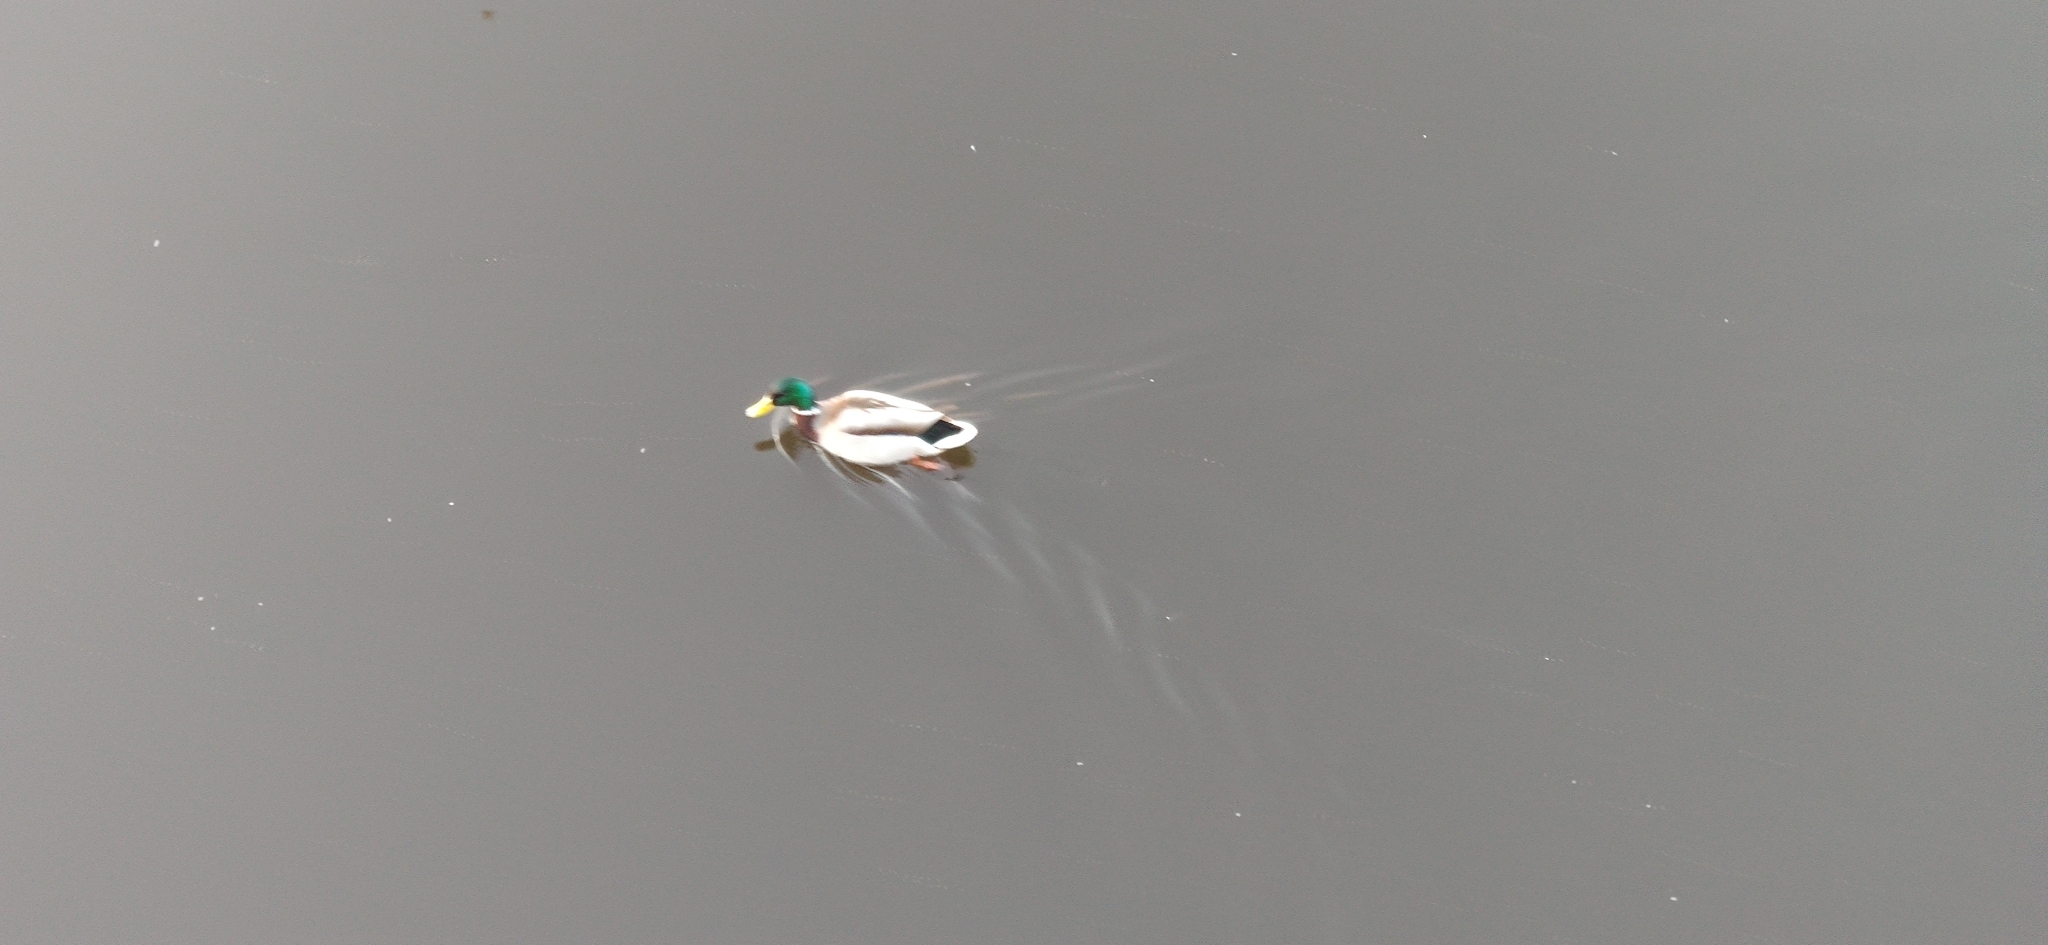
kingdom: Animalia
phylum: Chordata
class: Aves
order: Anseriformes
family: Anatidae
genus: Anas
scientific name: Anas platyrhynchos
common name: Mallard
